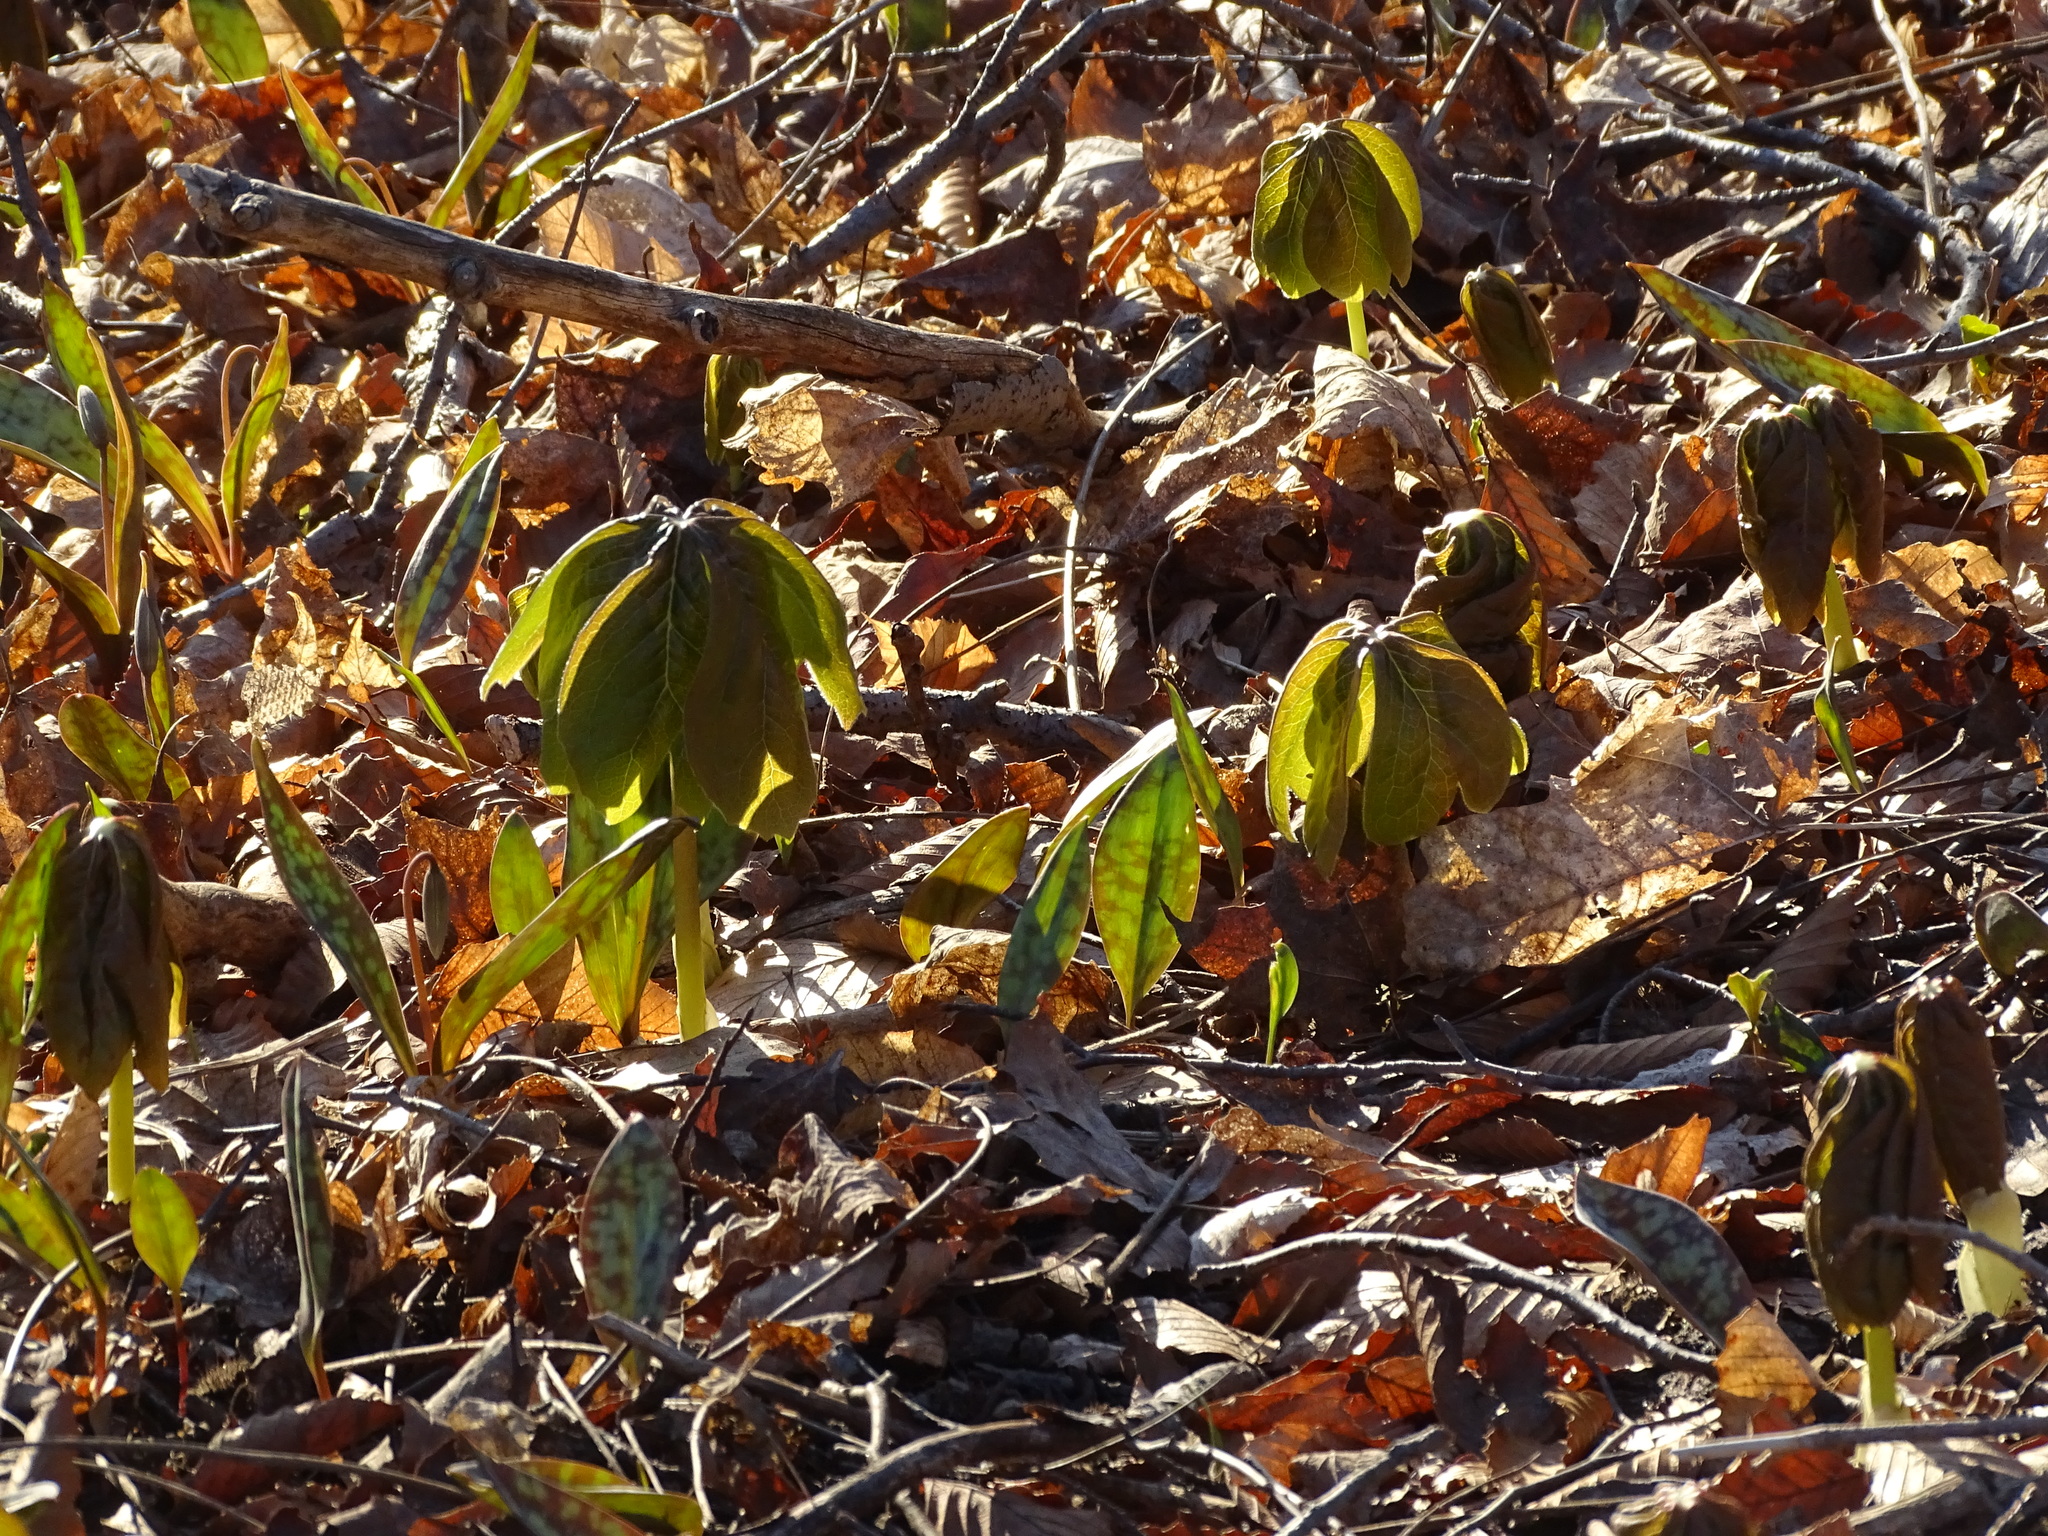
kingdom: Plantae
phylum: Tracheophyta
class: Magnoliopsida
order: Ranunculales
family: Berberidaceae
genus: Podophyllum
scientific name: Podophyllum peltatum
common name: Wild mandrake
